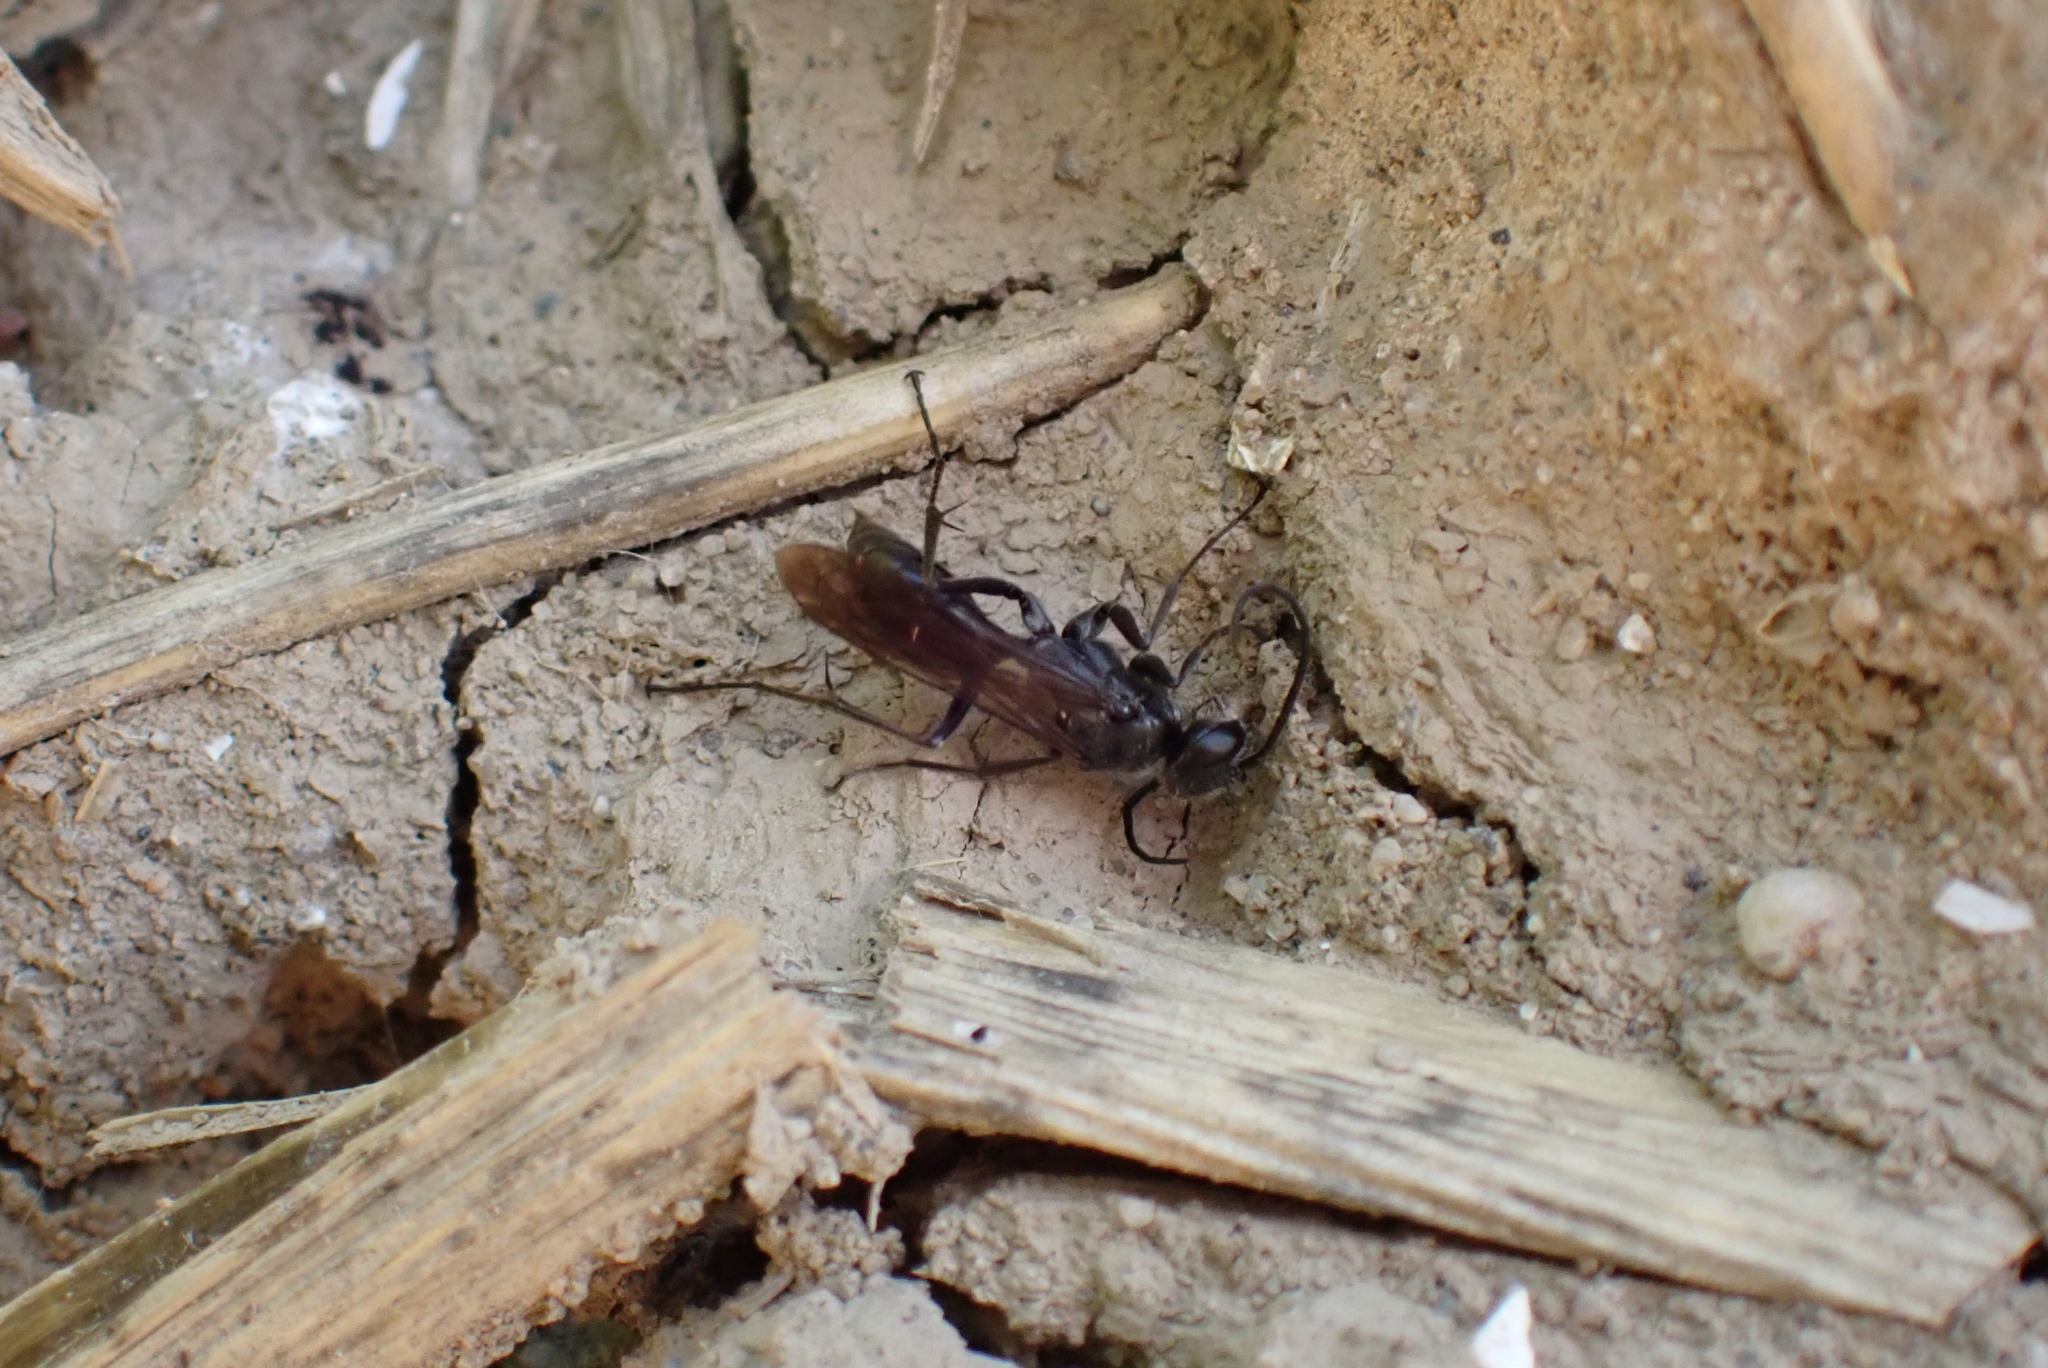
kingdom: Animalia
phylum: Arthropoda
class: Insecta
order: Hymenoptera
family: Pompilidae
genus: Auplopus
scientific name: Auplopus carbonarius
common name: Spider wasp
